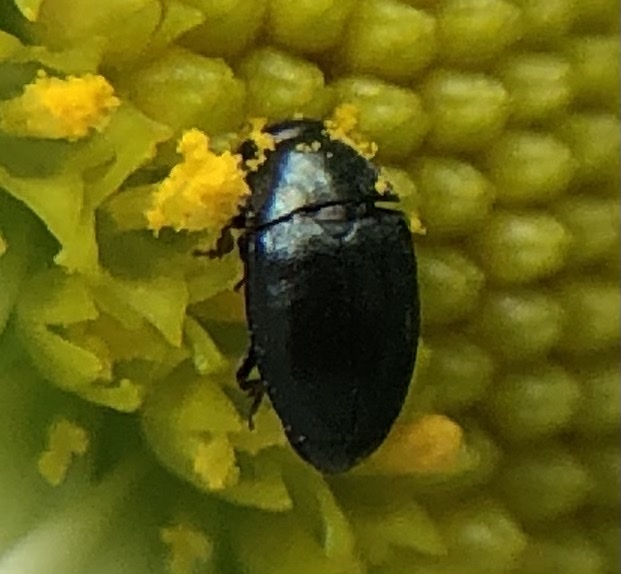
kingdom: Animalia
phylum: Arthropoda
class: Insecta
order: Coleoptera
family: Nitidulidae
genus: Brassicogethes
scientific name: Brassicogethes aeneus
